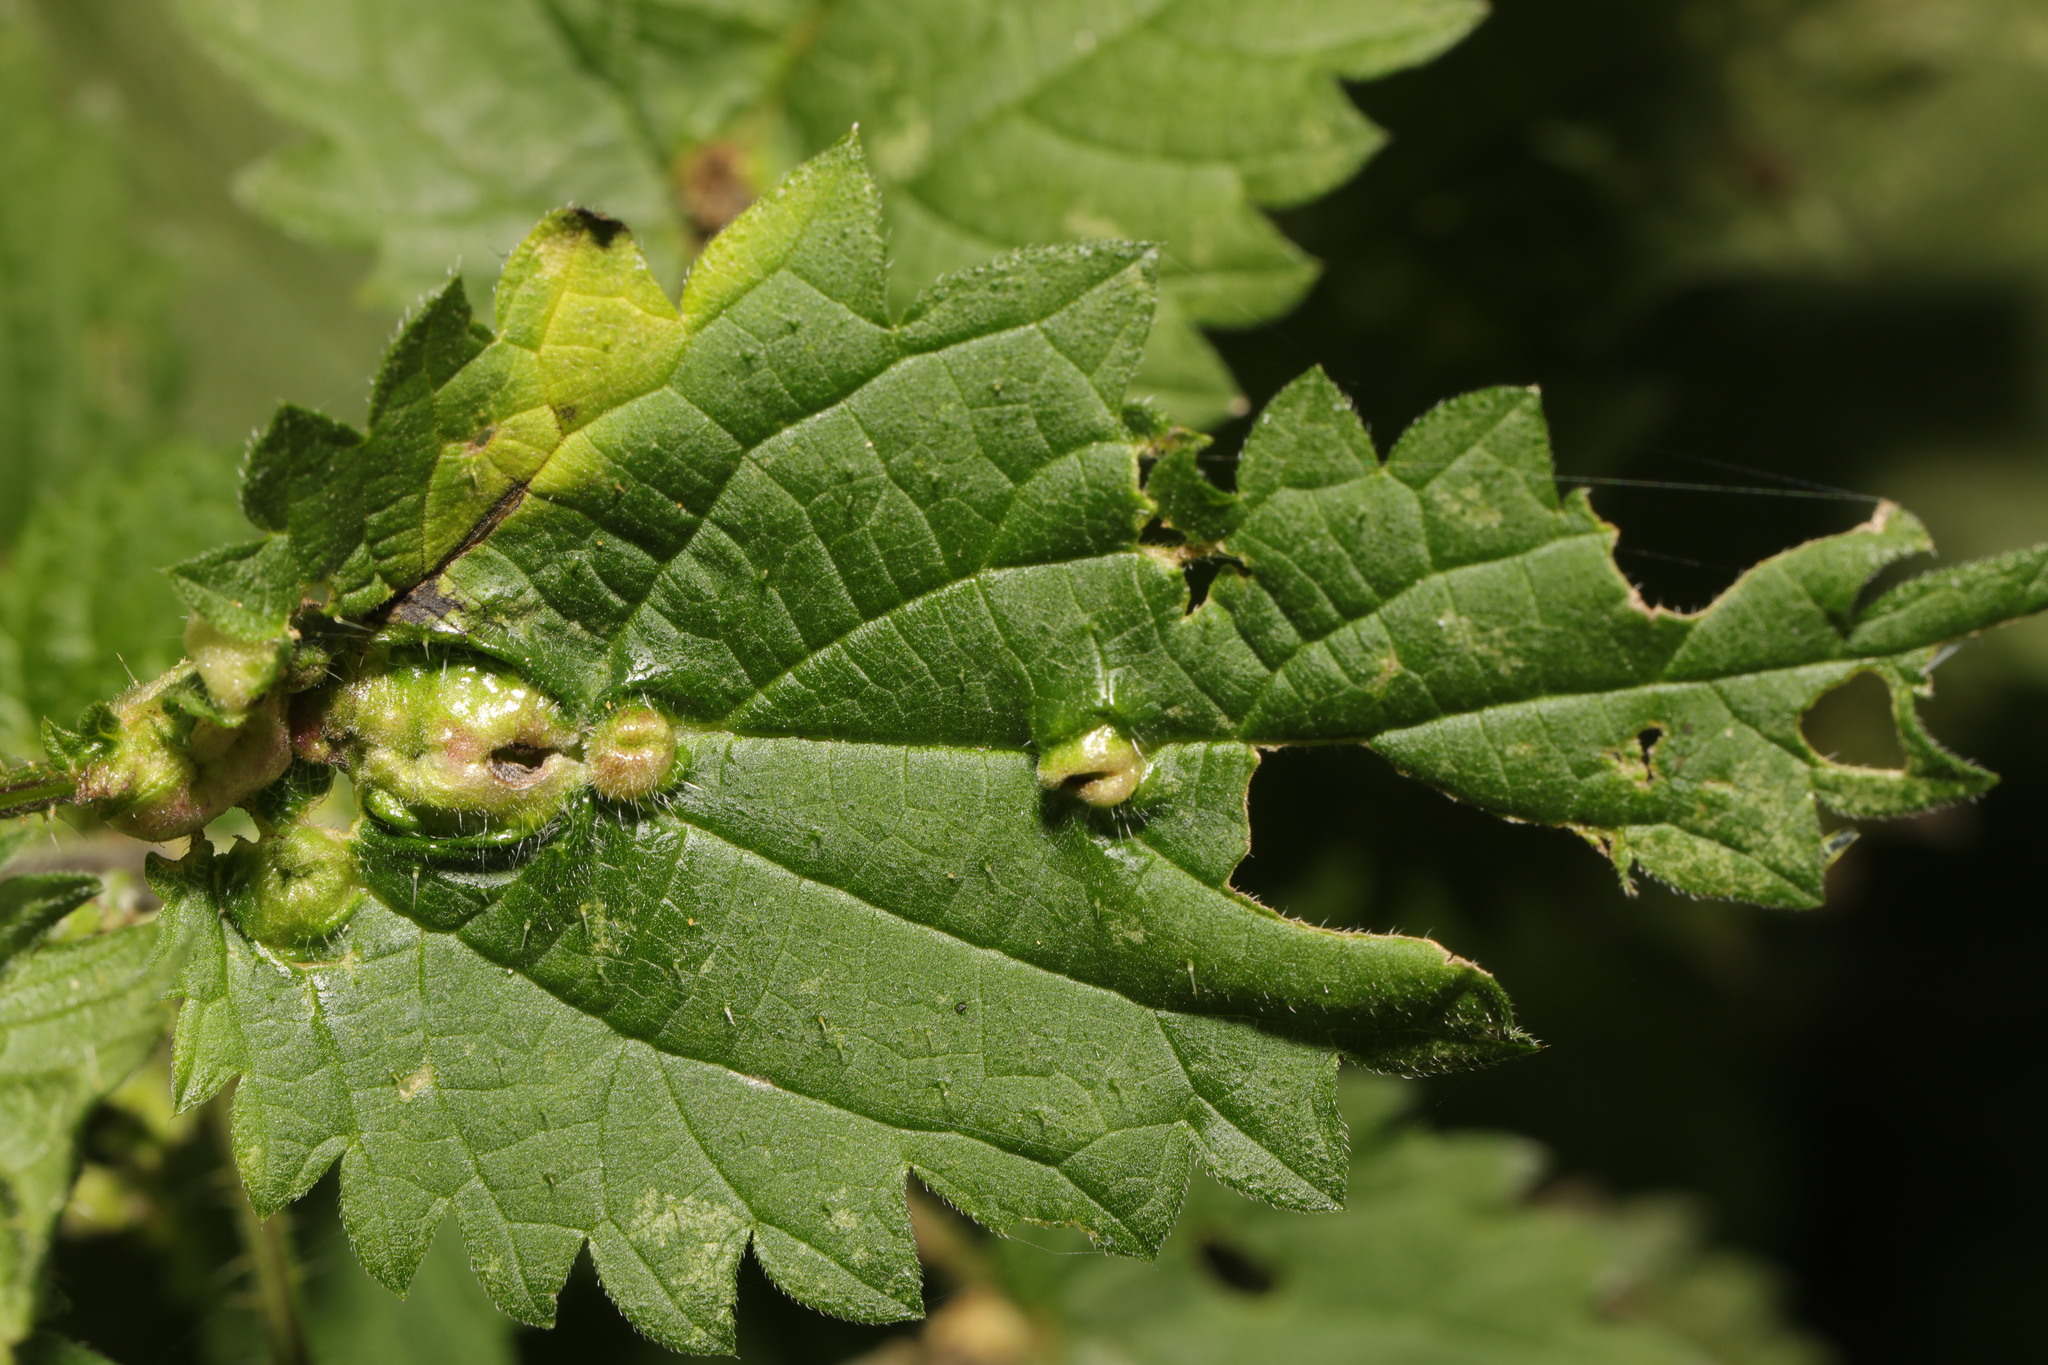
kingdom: Animalia
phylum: Arthropoda
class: Insecta
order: Diptera
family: Cecidomyiidae
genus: Dasineura
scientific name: Dasineura urticae
